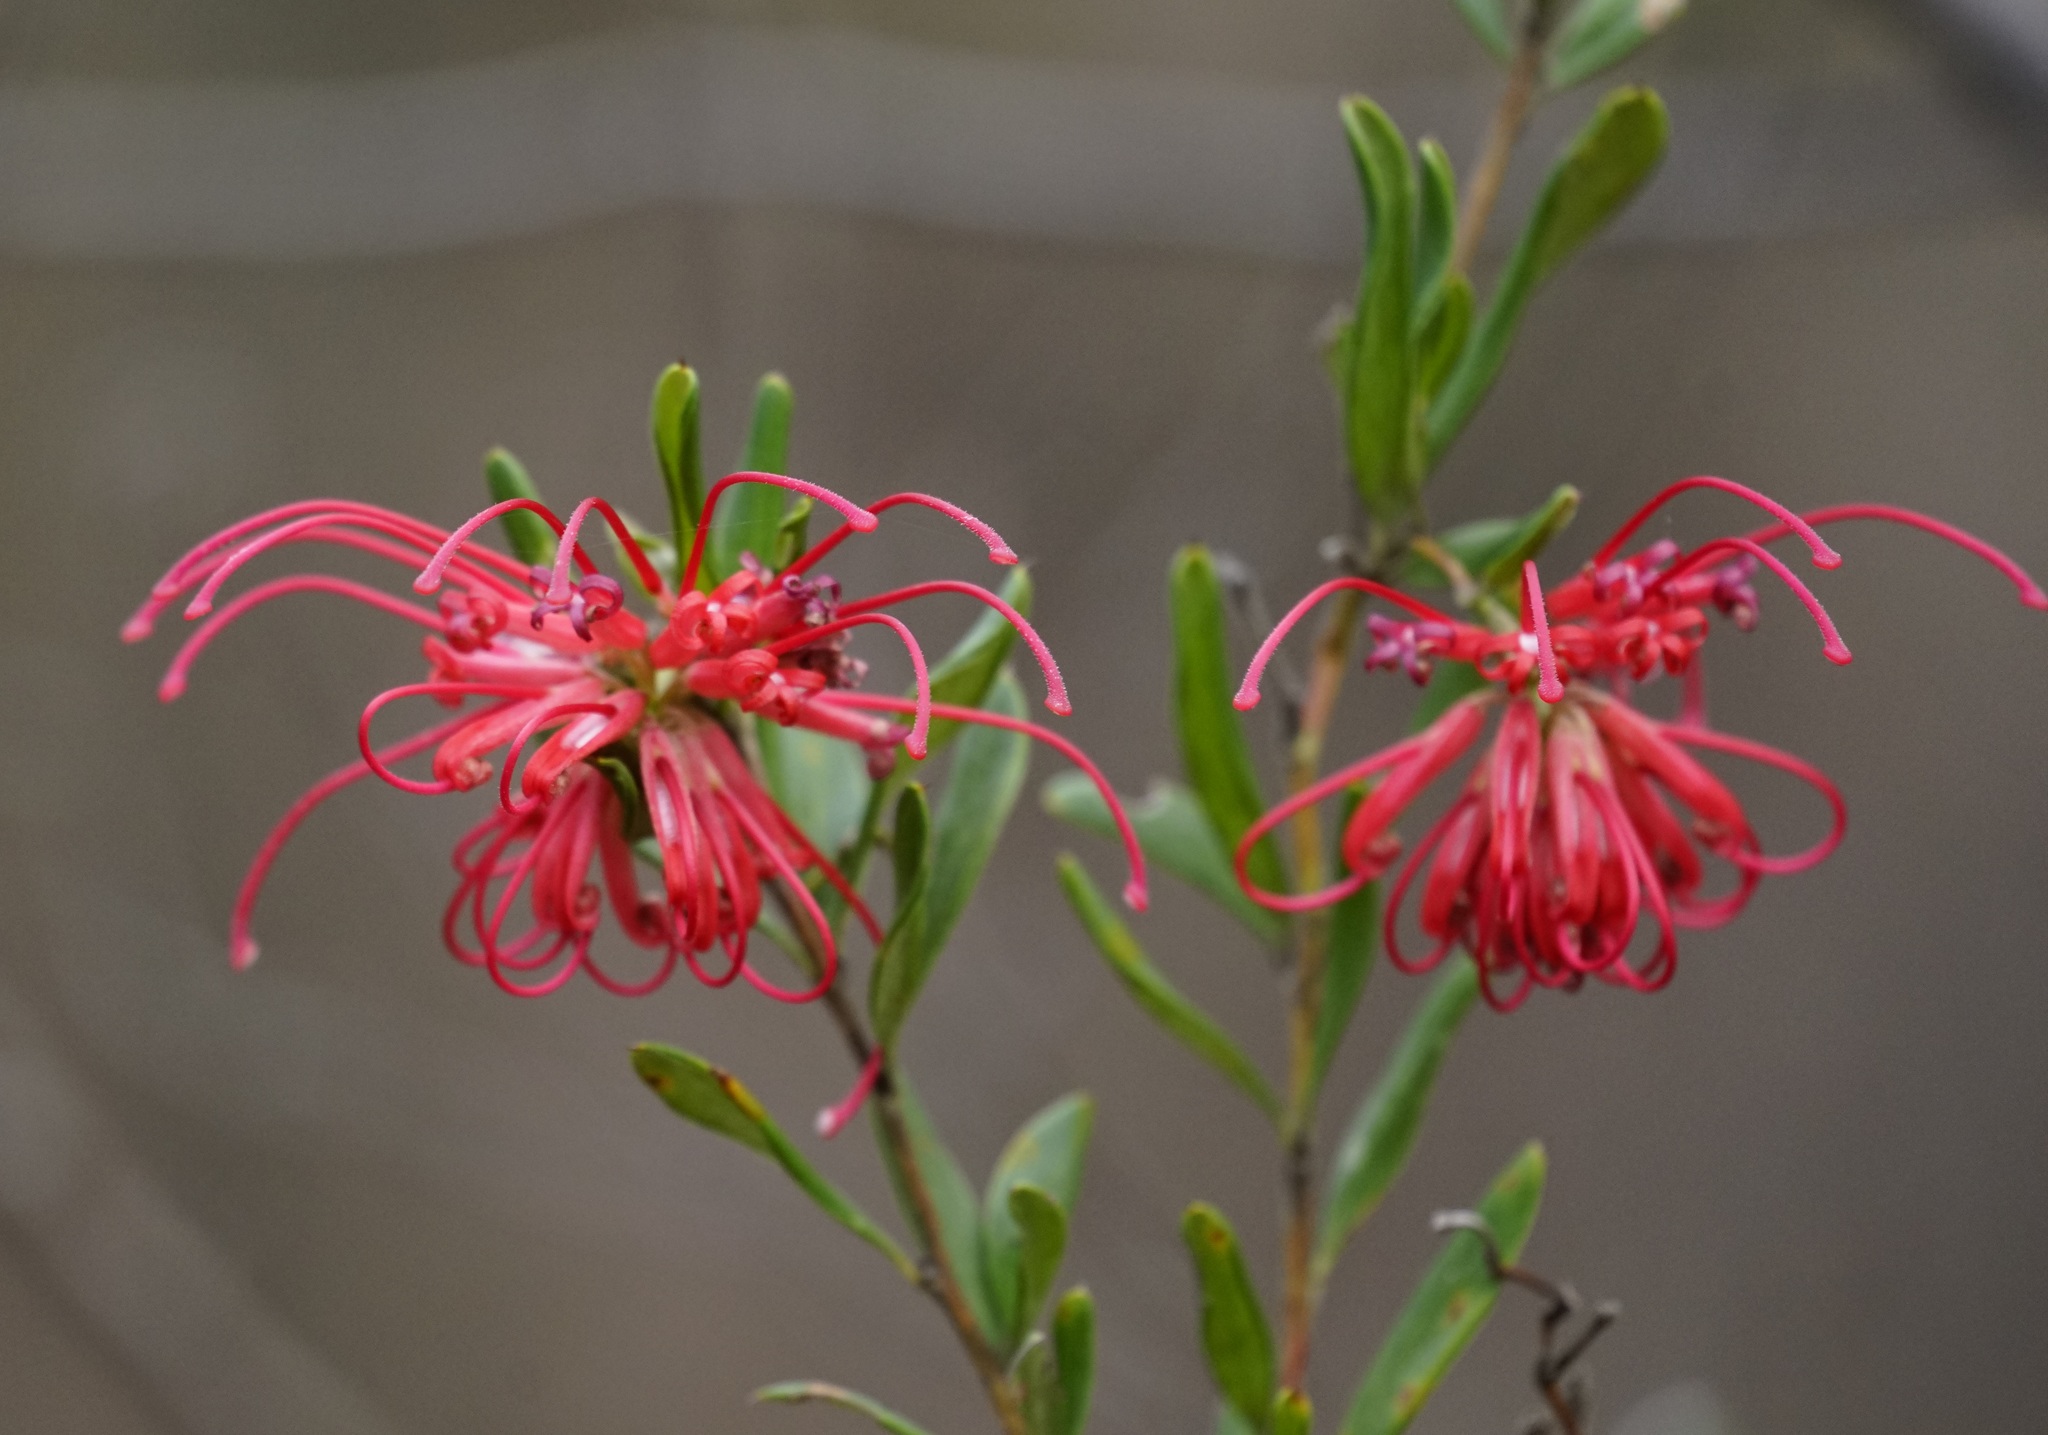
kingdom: Plantae
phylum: Tracheophyta
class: Magnoliopsida
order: Proteales
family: Proteaceae
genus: Grevillea
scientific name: Grevillea speciosa
